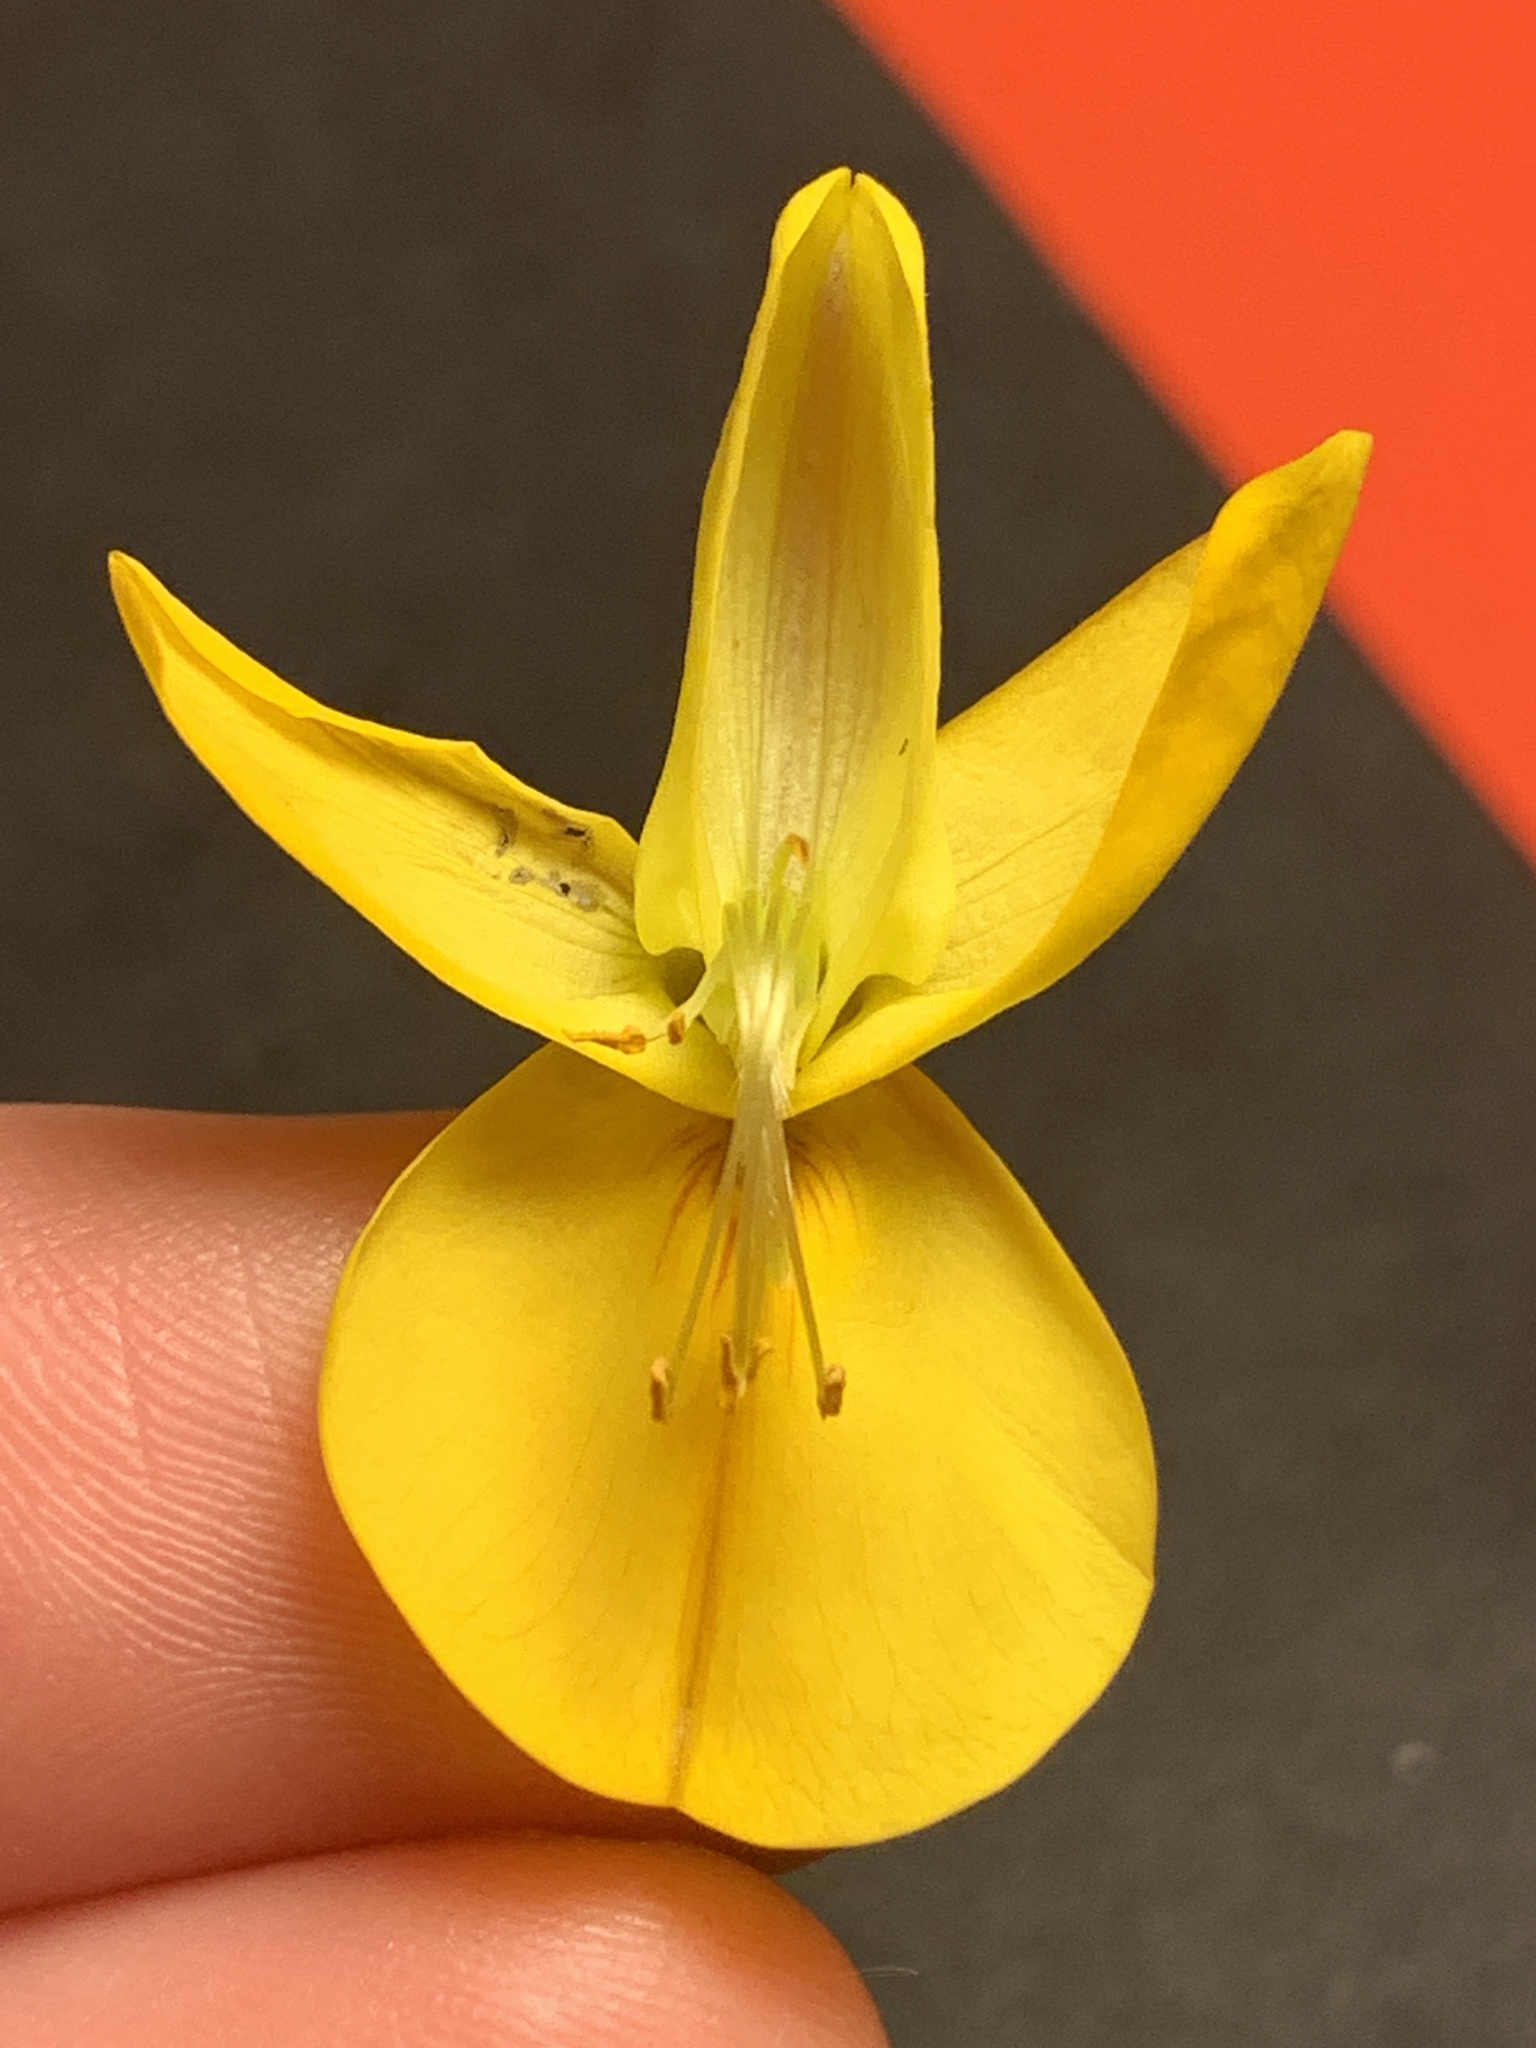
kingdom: Plantae
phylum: Tracheophyta
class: Magnoliopsida
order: Fabales
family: Fabaceae
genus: Cytisus
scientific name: Cytisus scoparius
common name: Scotch broom
